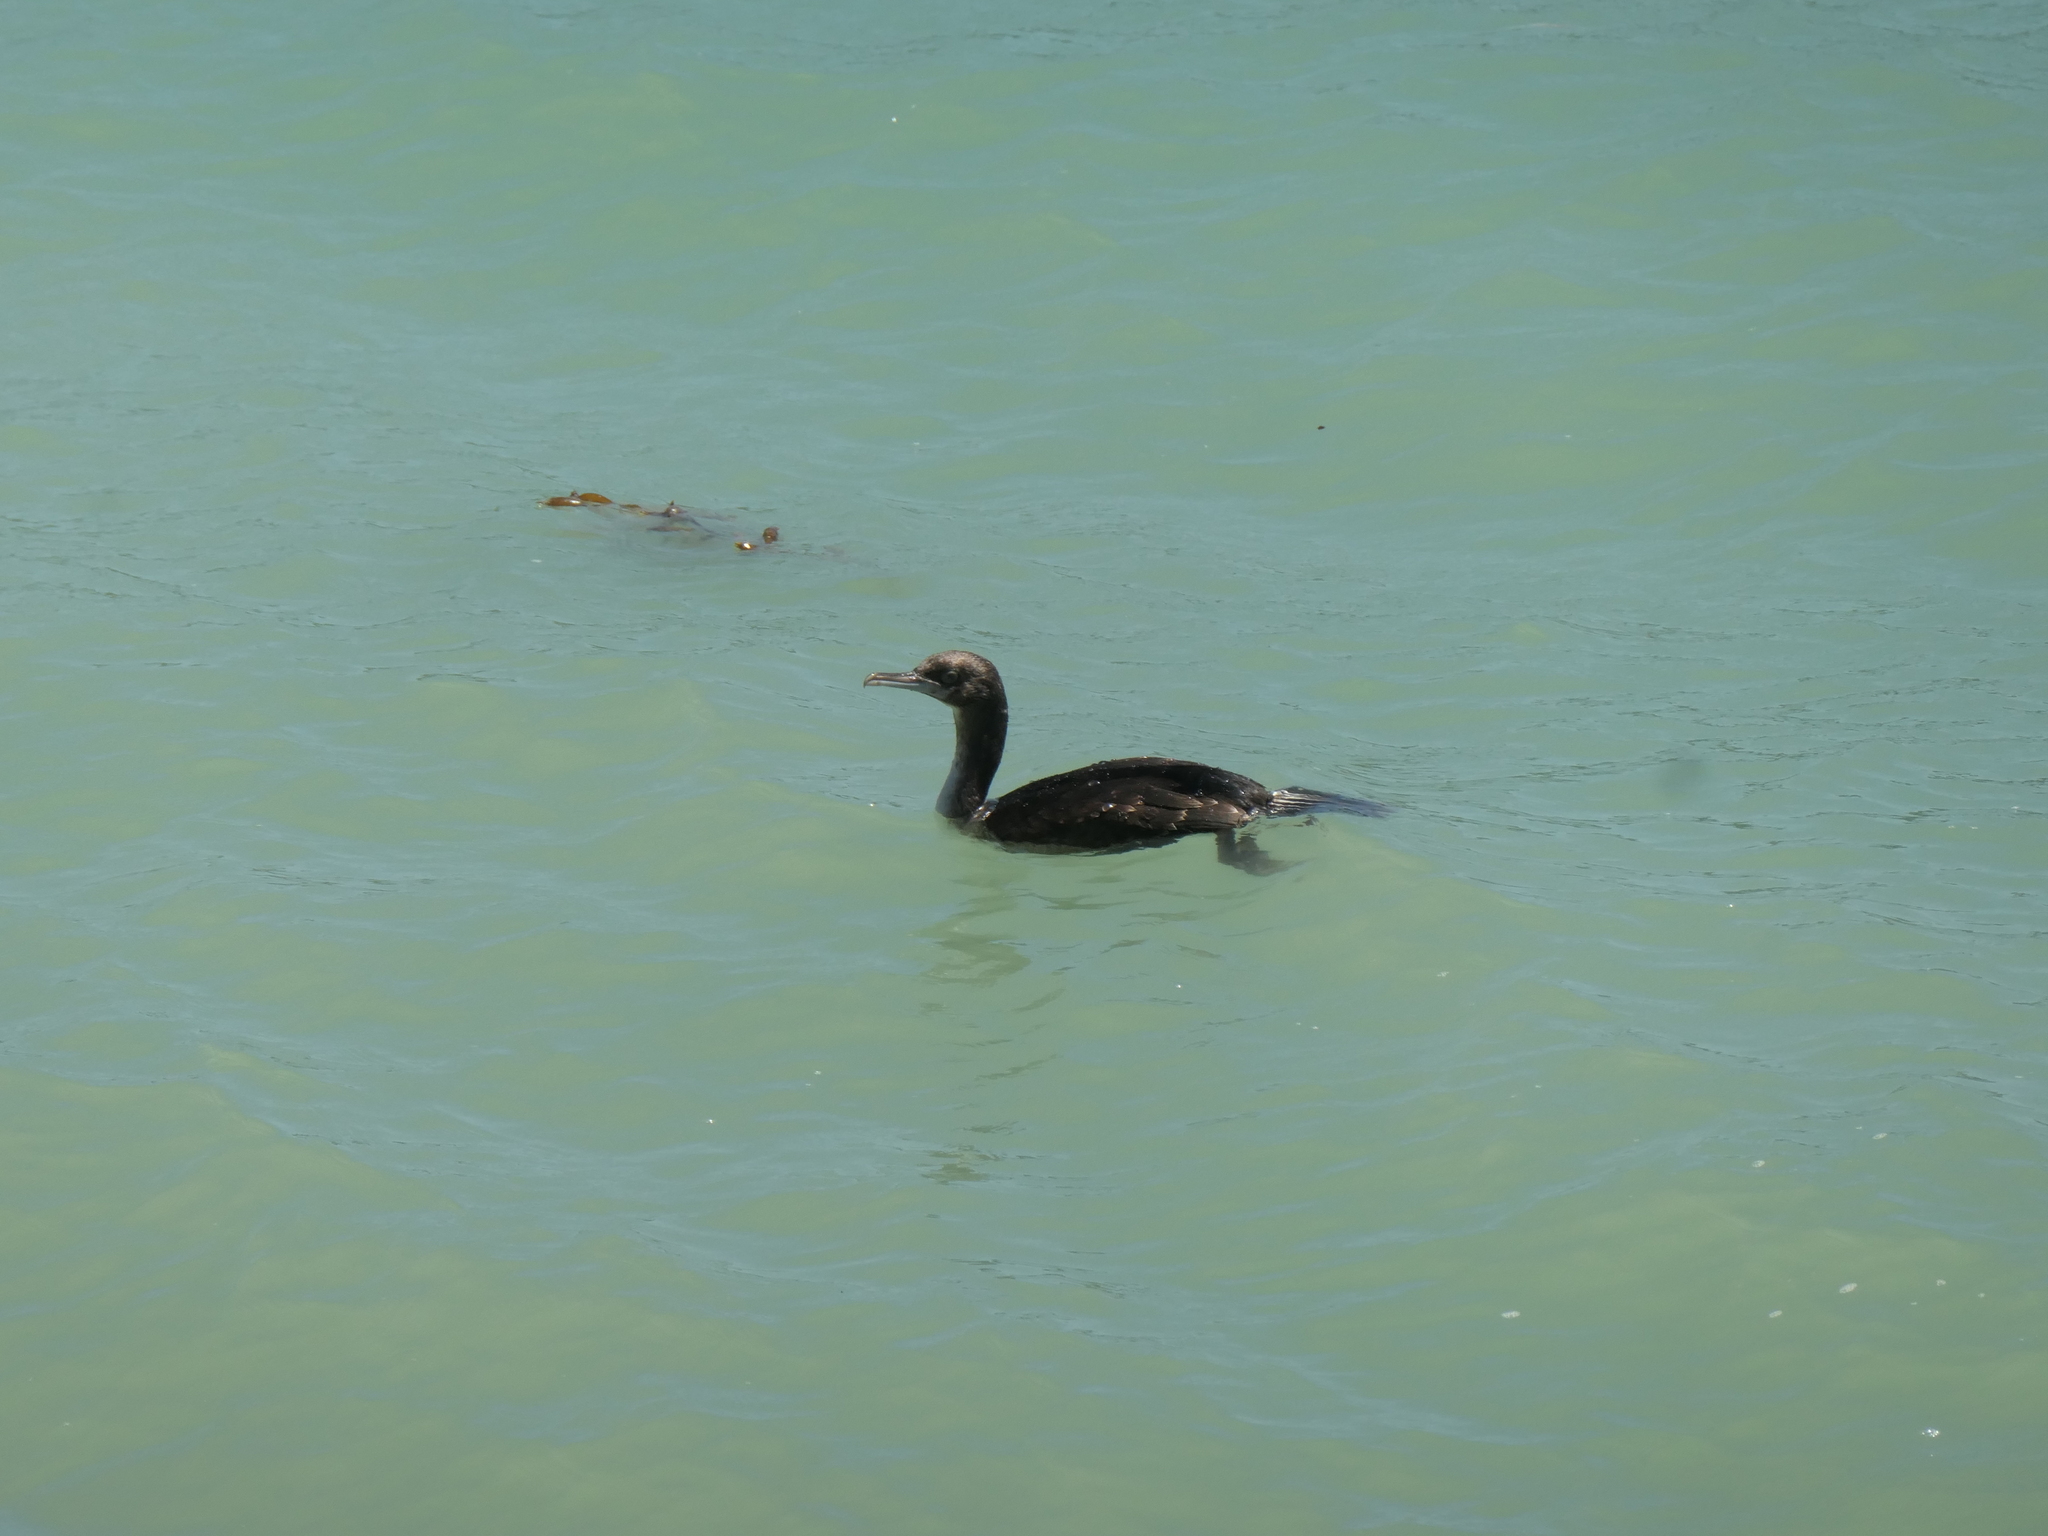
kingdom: Animalia
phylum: Chordata
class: Aves
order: Suliformes
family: Phalacrocoracidae
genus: Leucocarbo
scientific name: Leucocarbo chalconotus
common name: Stewart shag
